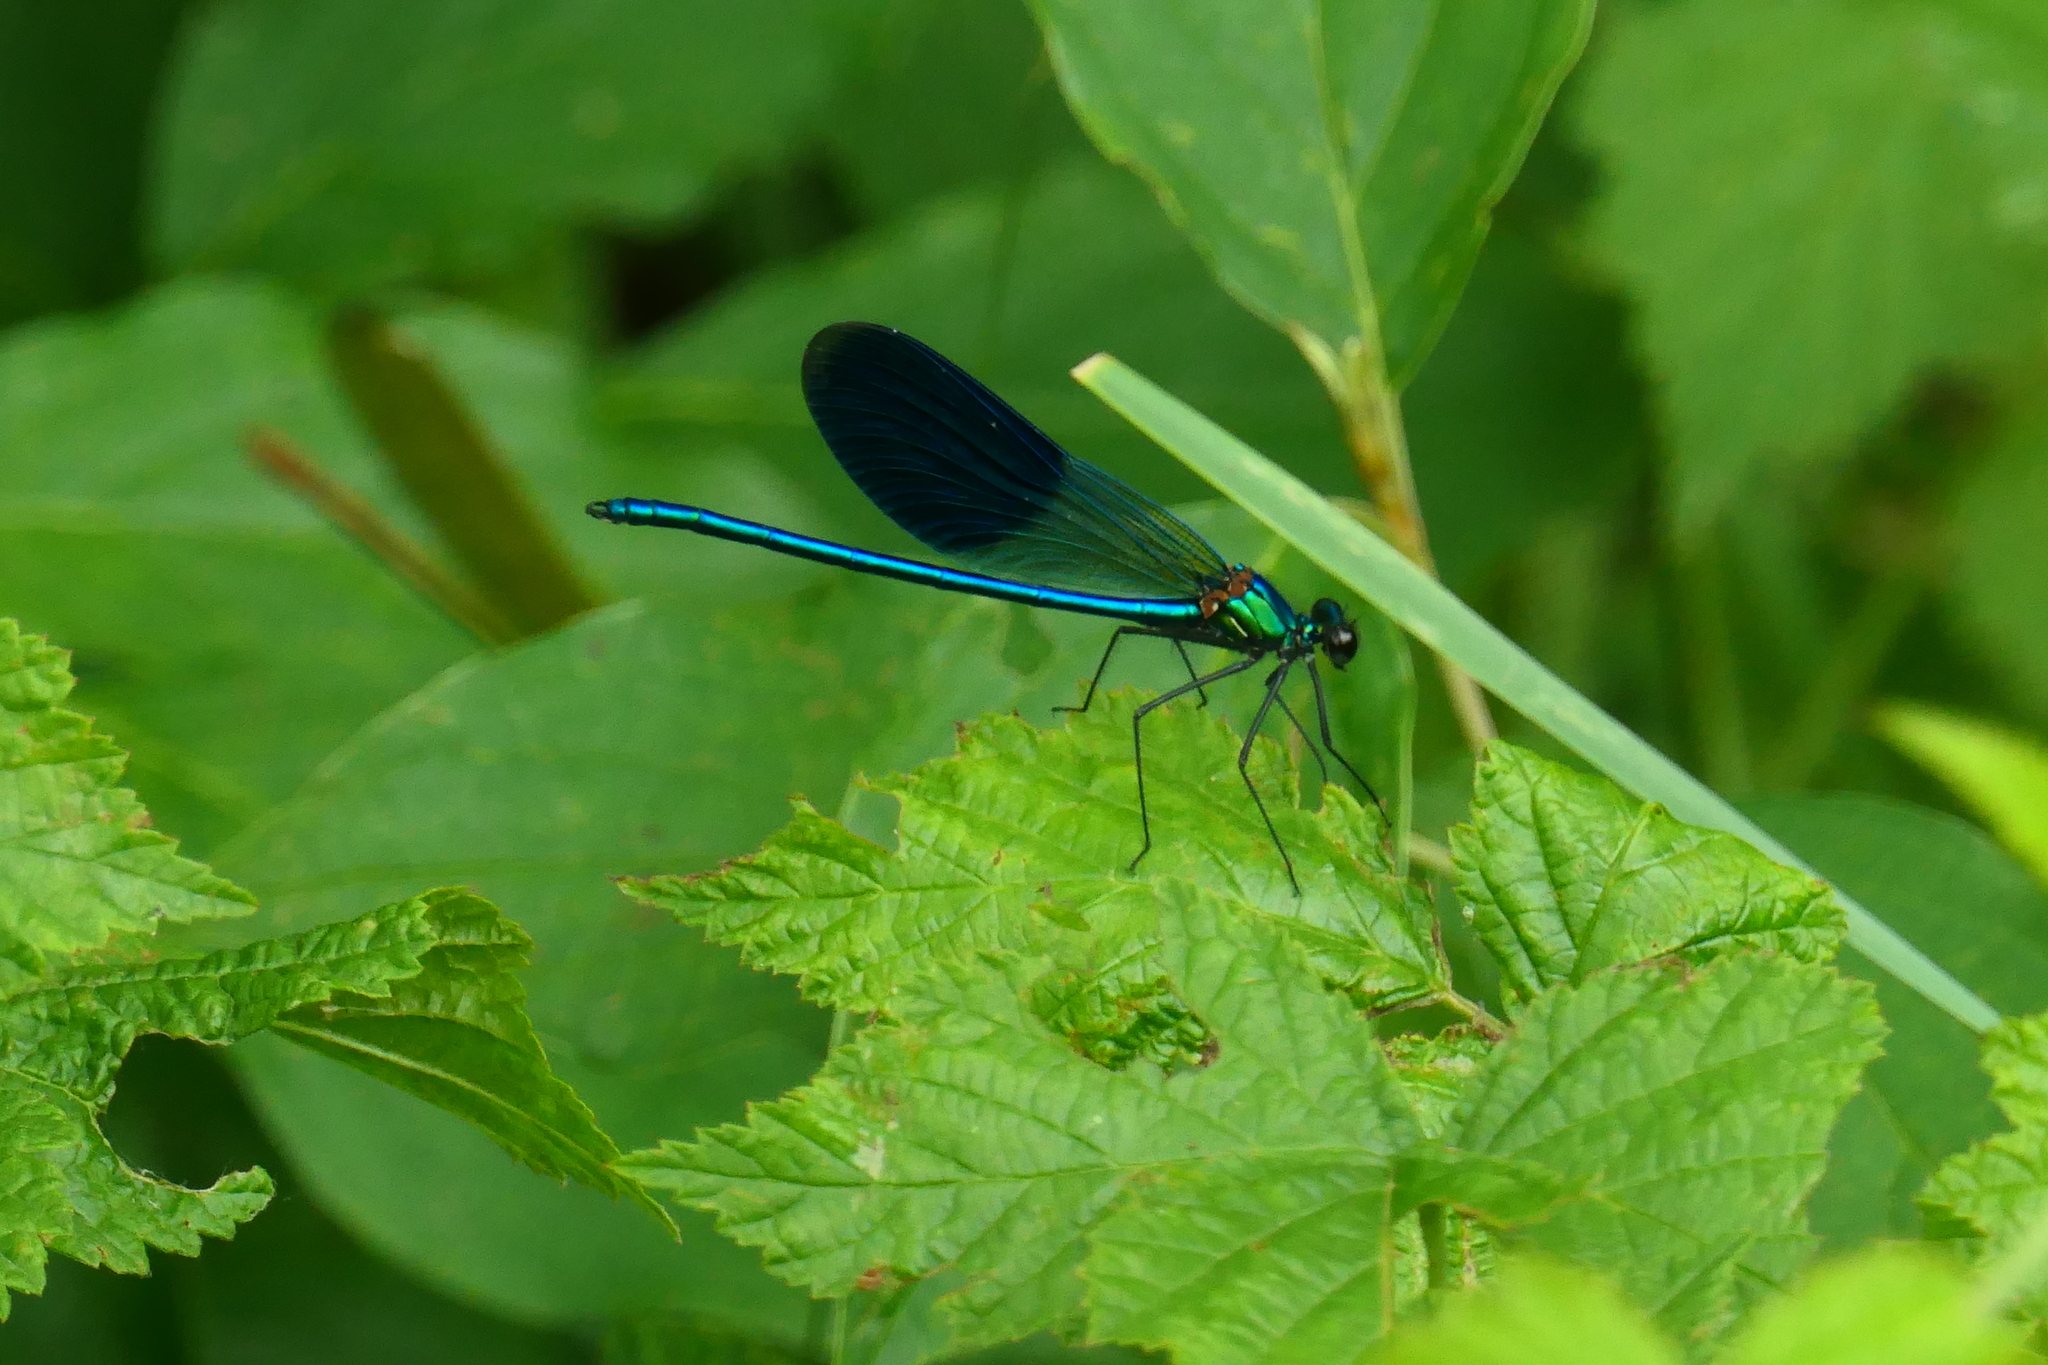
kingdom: Animalia
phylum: Arthropoda
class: Insecta
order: Odonata
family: Calopterygidae
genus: Calopteryx
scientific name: Calopteryx splendens
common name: Banded demoiselle
